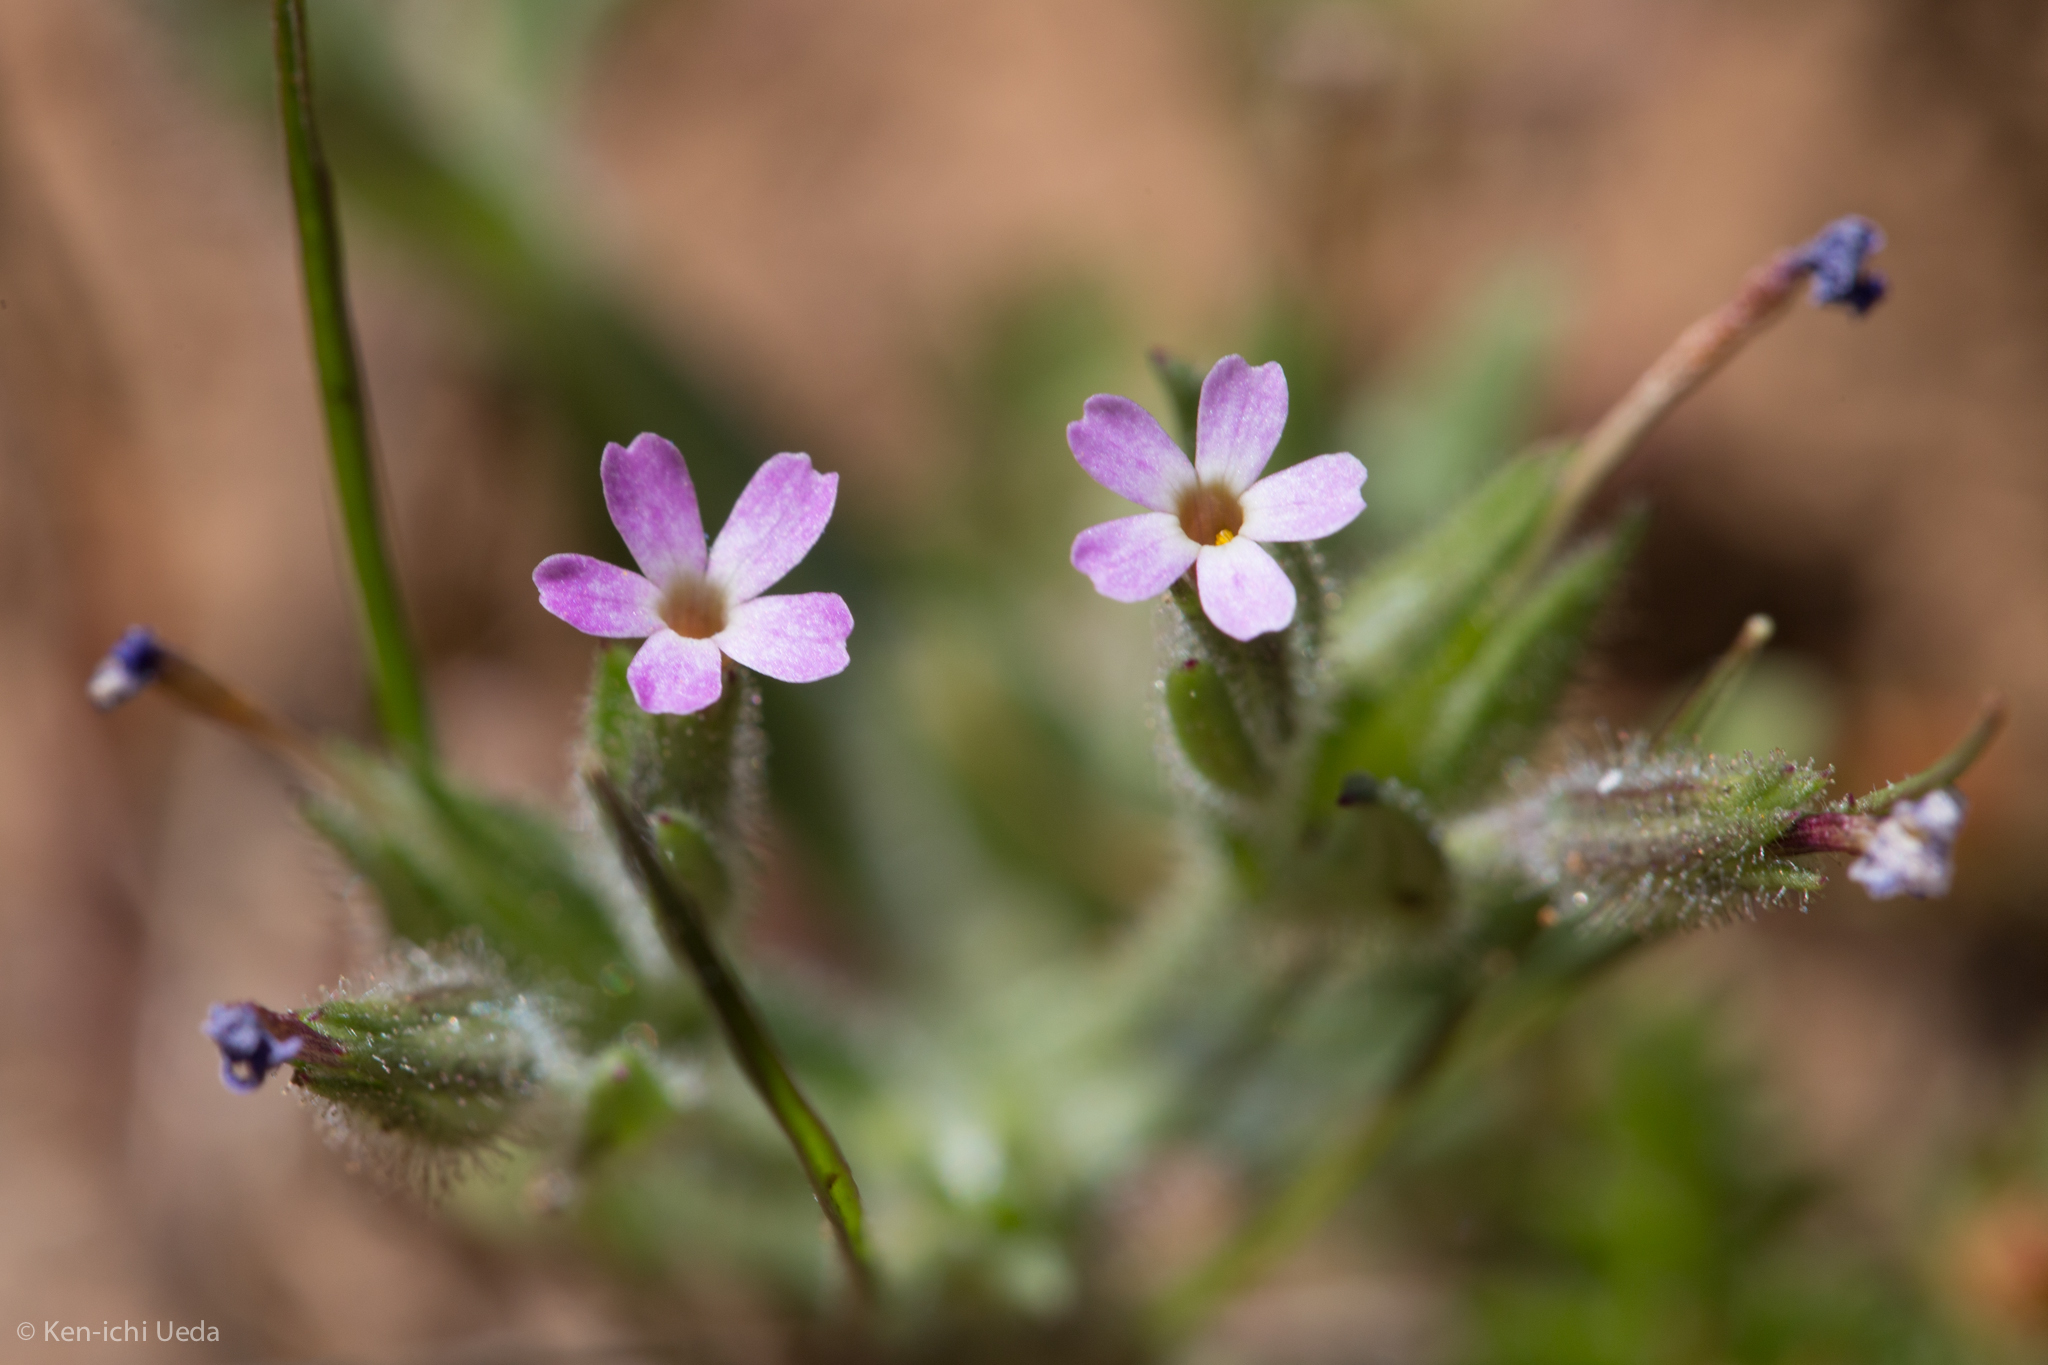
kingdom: Plantae
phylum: Tracheophyta
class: Magnoliopsida
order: Ericales
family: Polemoniaceae
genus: Phlox
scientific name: Phlox gracilis
